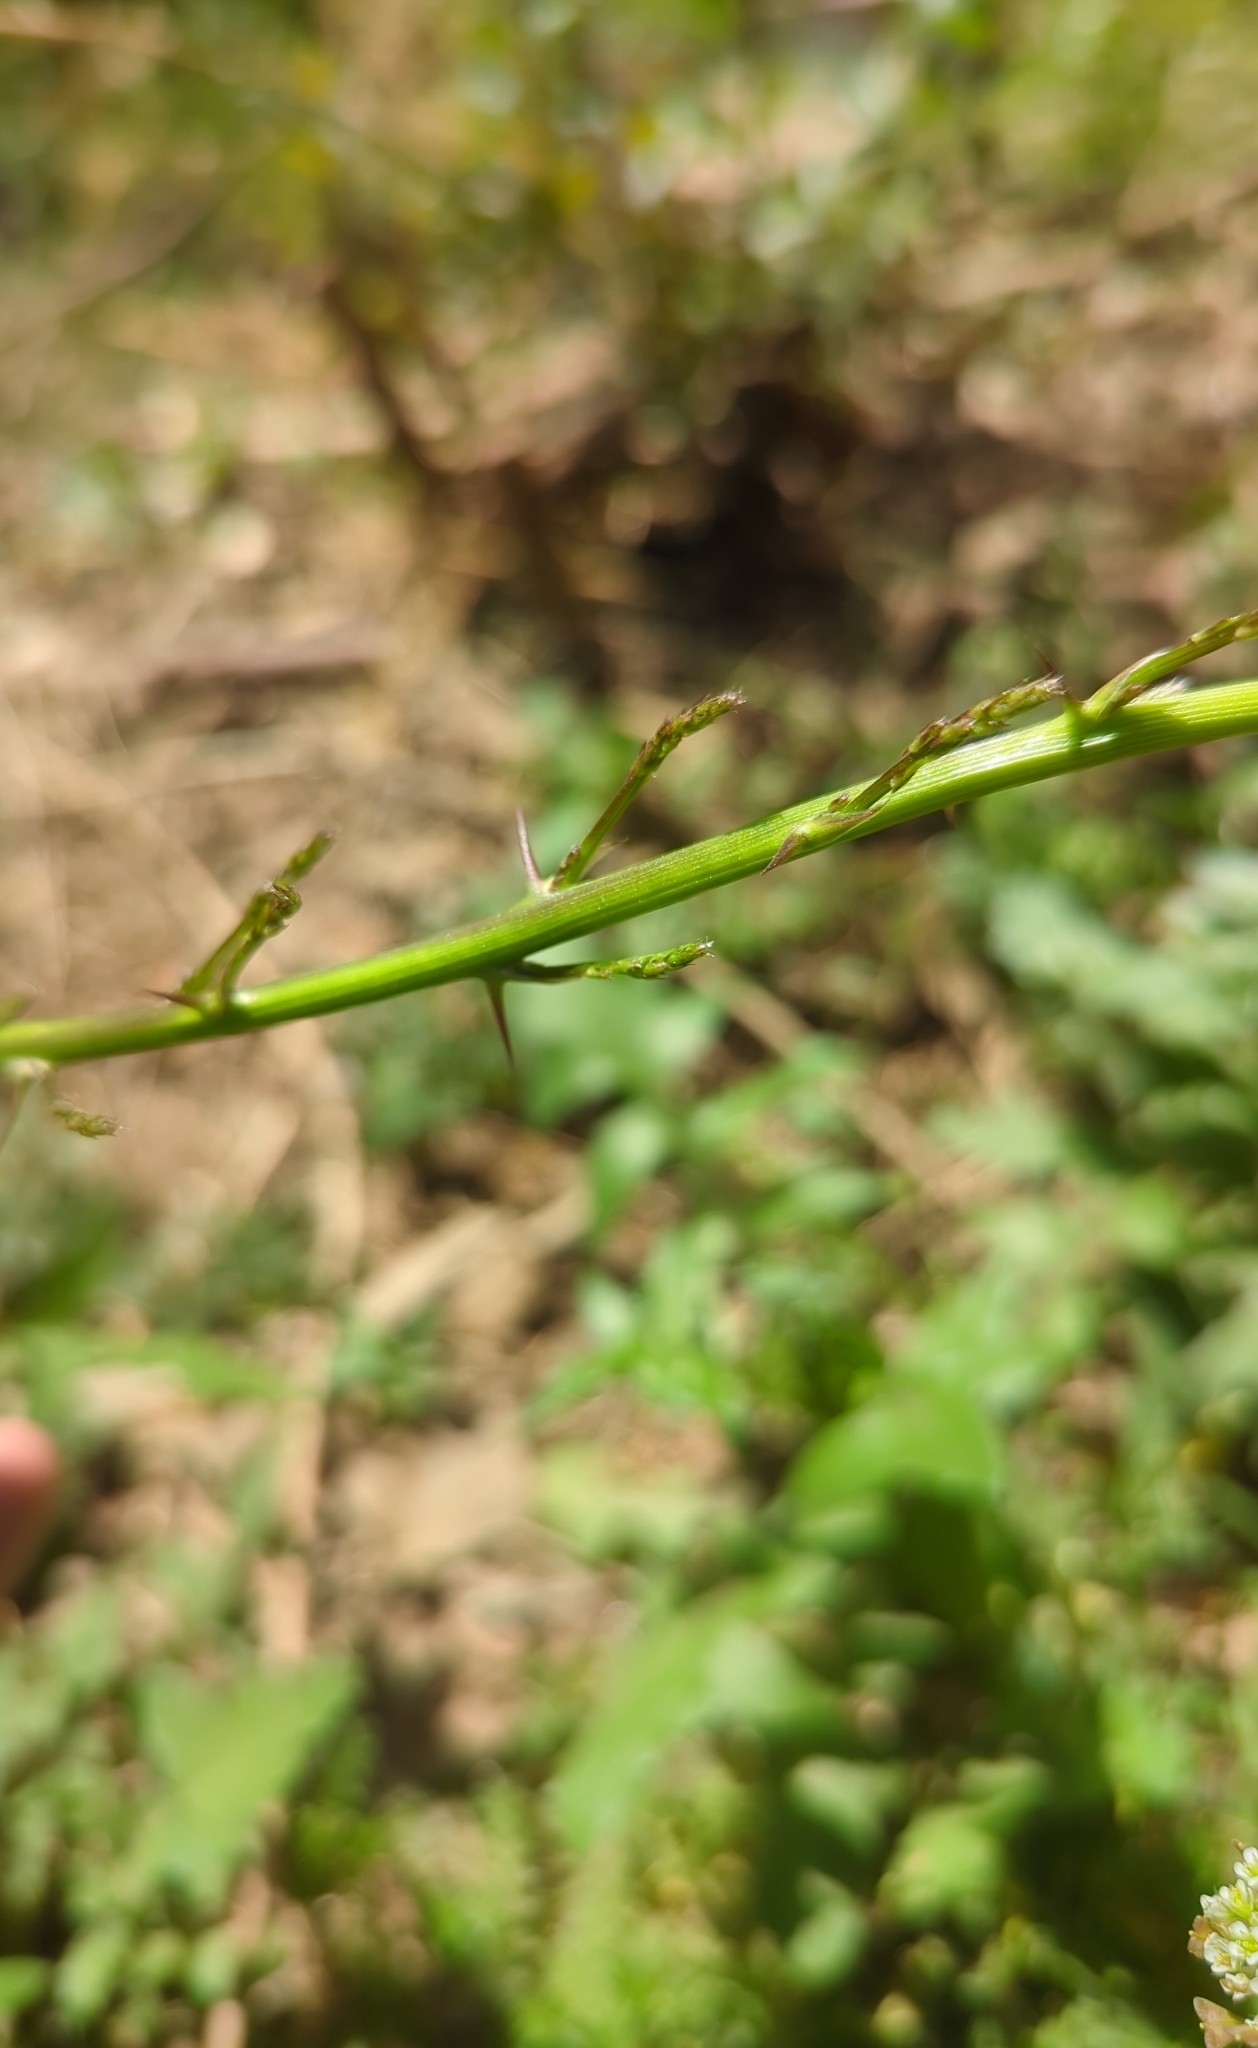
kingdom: Plantae
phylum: Tracheophyta
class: Liliopsida
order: Asparagales
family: Asparagaceae
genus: Asparagus
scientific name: Asparagus acutifolius
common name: Wild asparagus
